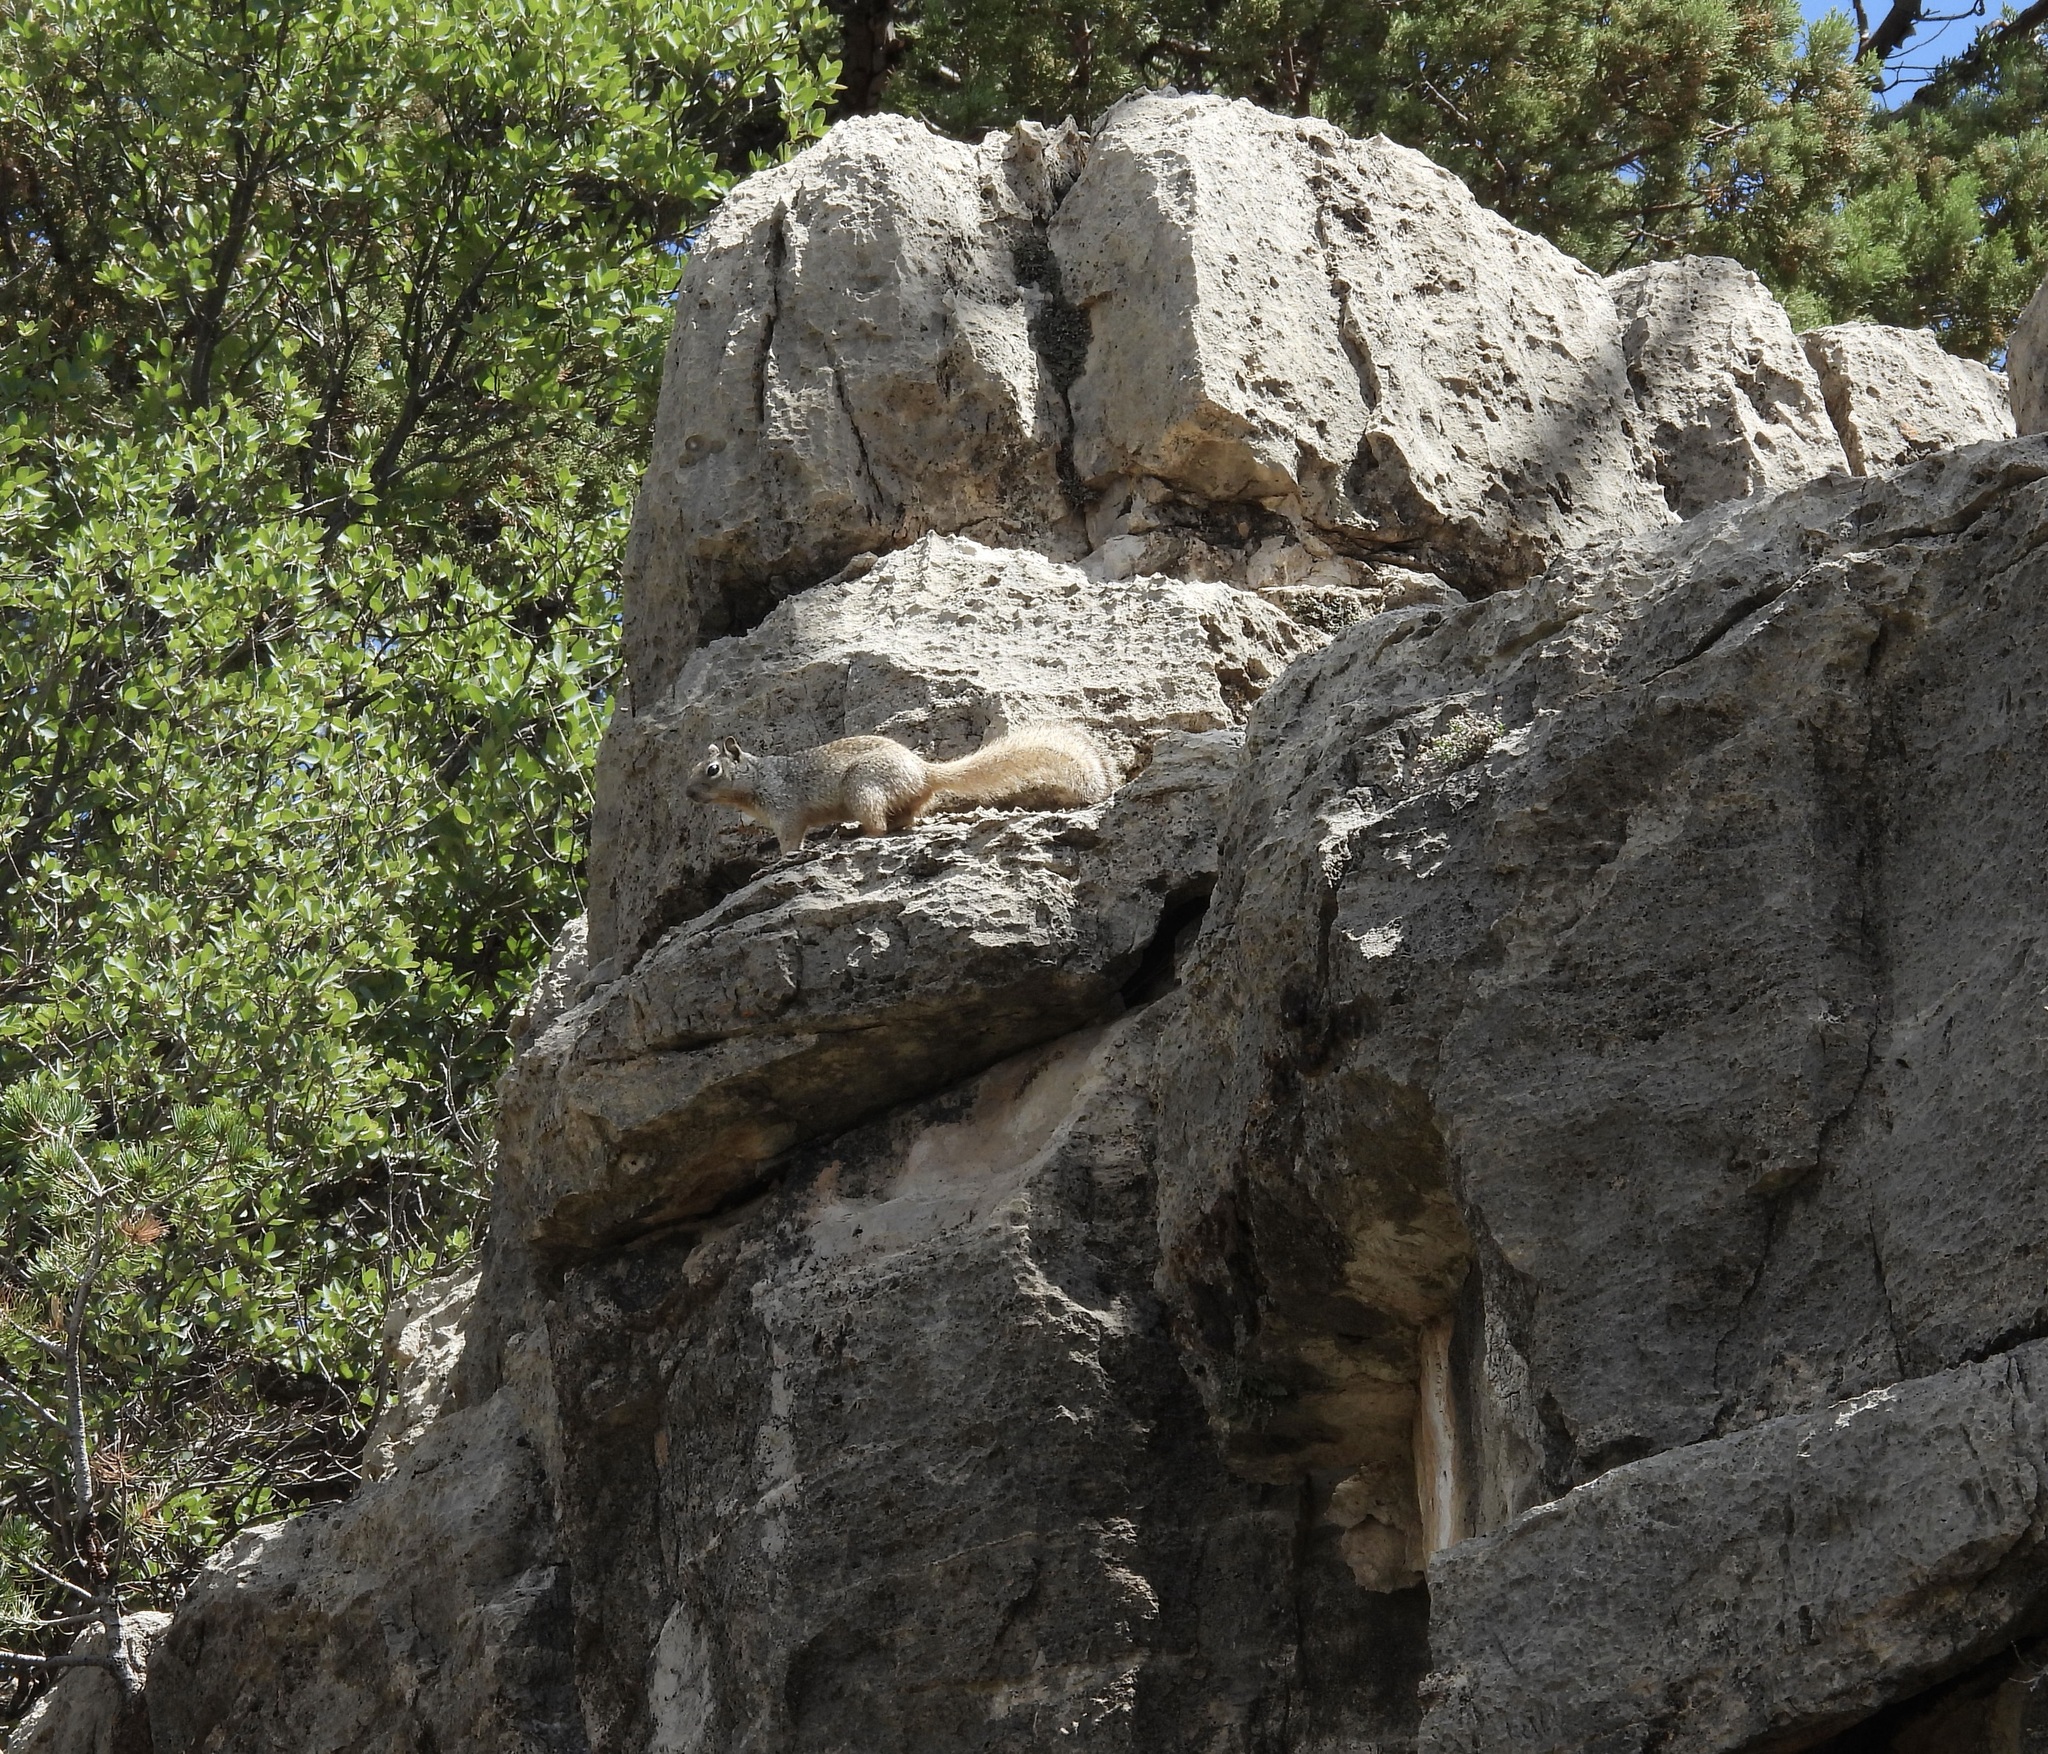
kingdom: Animalia
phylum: Chordata
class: Mammalia
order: Rodentia
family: Sciuridae
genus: Otospermophilus
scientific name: Otospermophilus variegatus
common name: Rock squirrel
